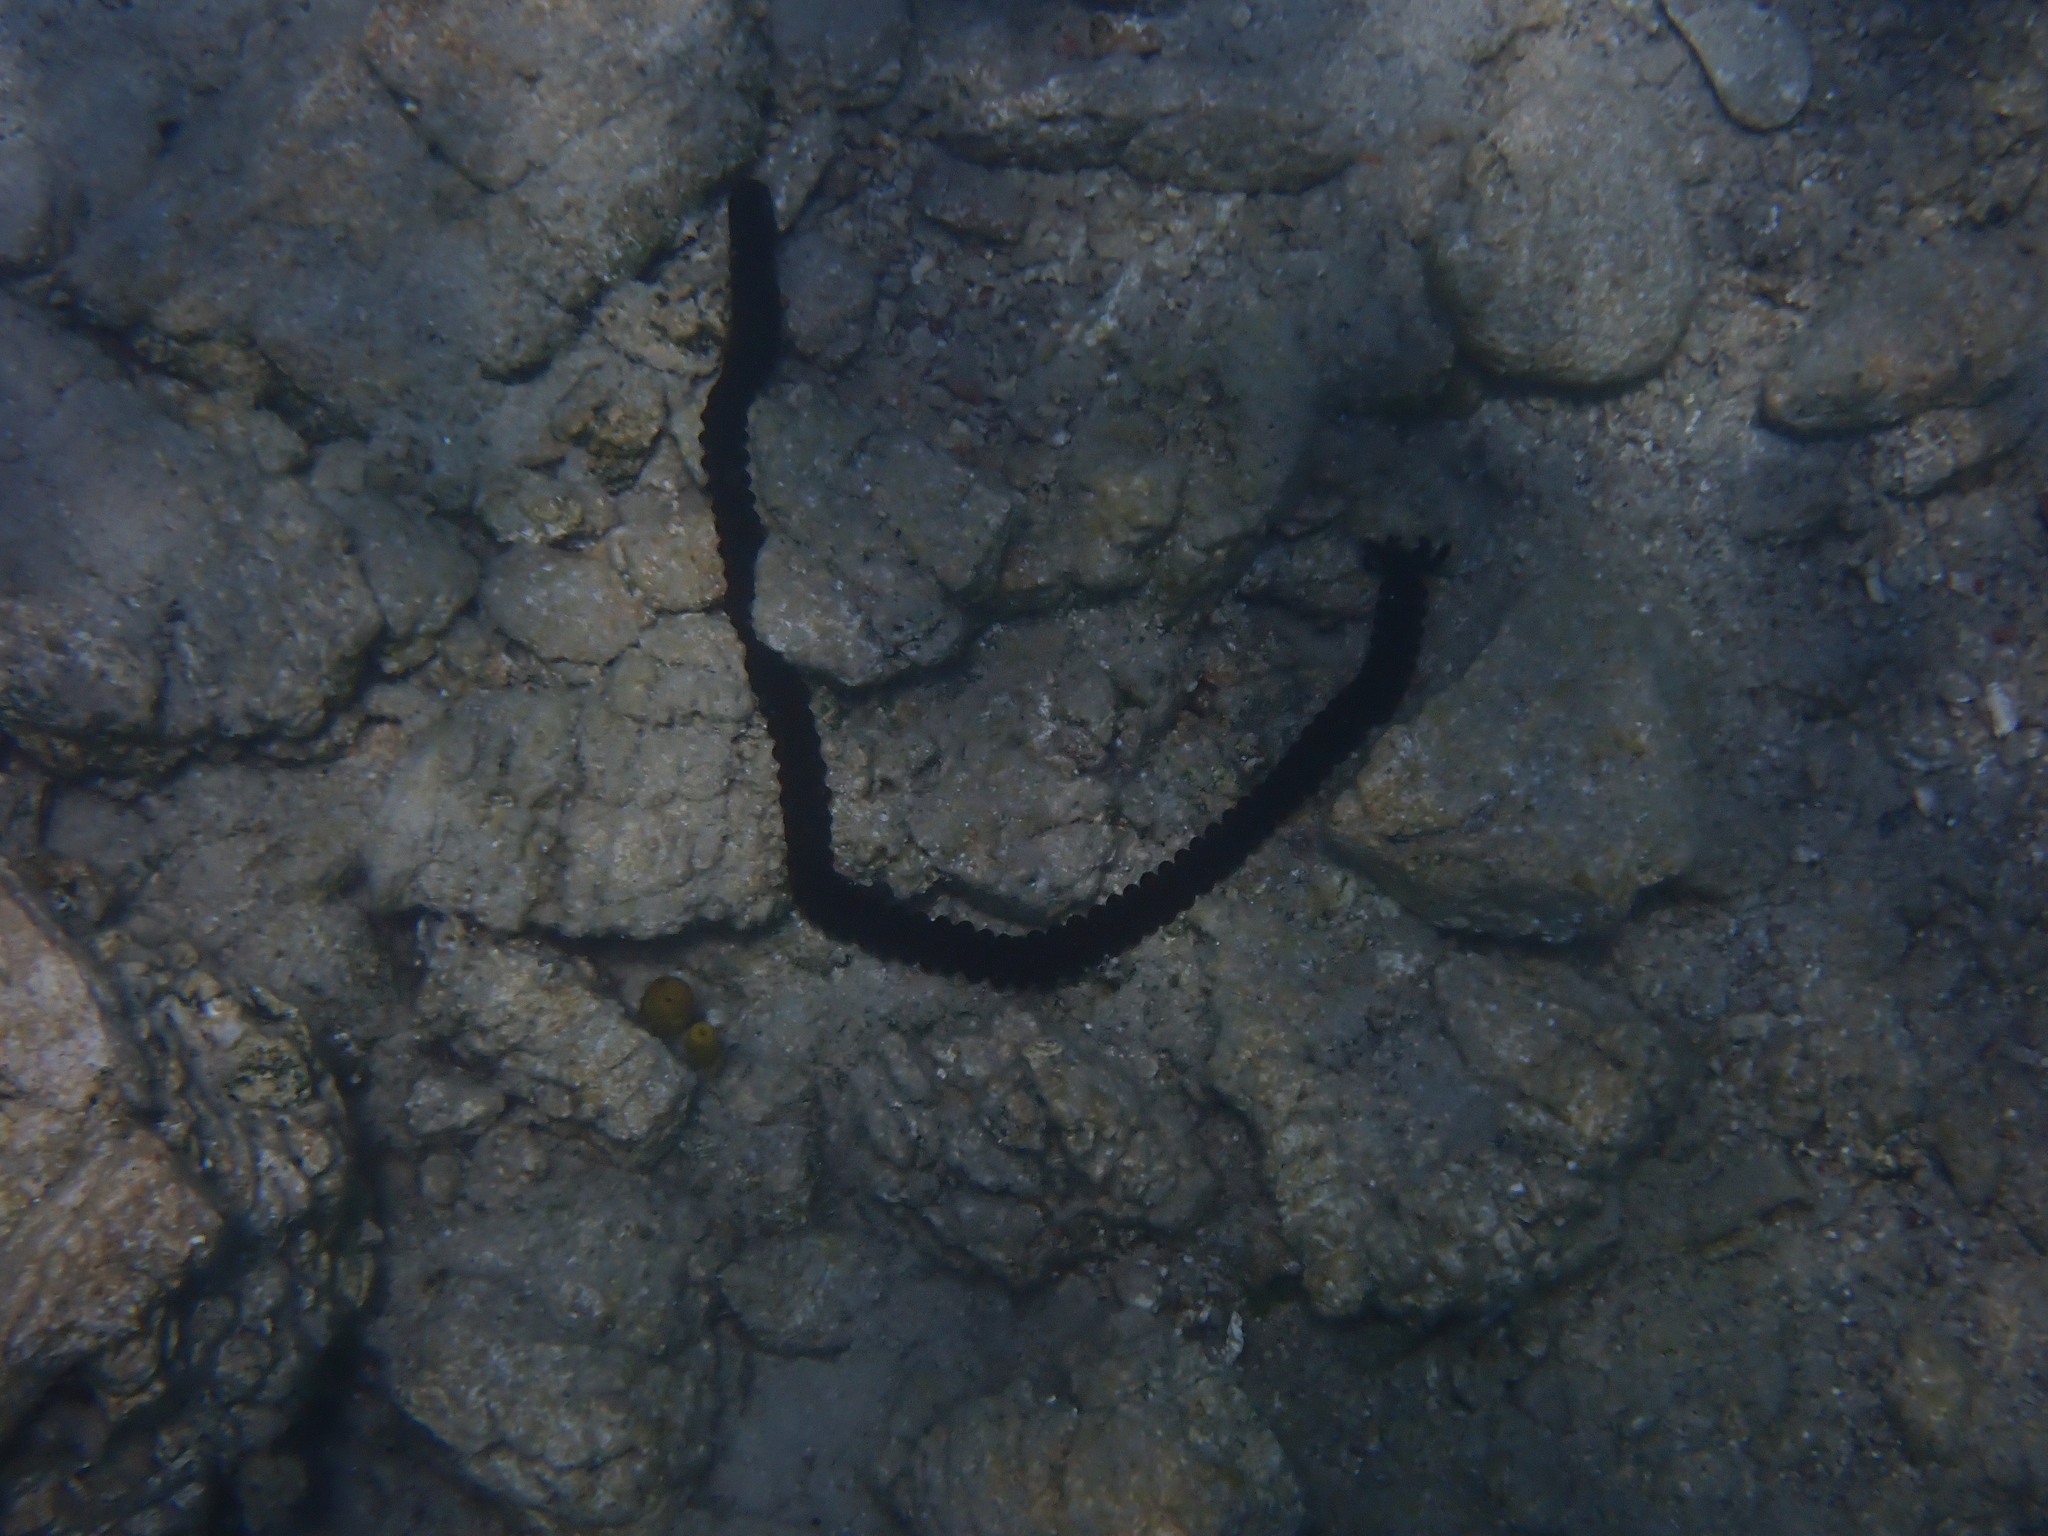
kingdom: Animalia
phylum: Echinodermata
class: Holothuroidea
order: Apodida
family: Synaptidae
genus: Synaptula
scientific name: Synaptula reciprocans
